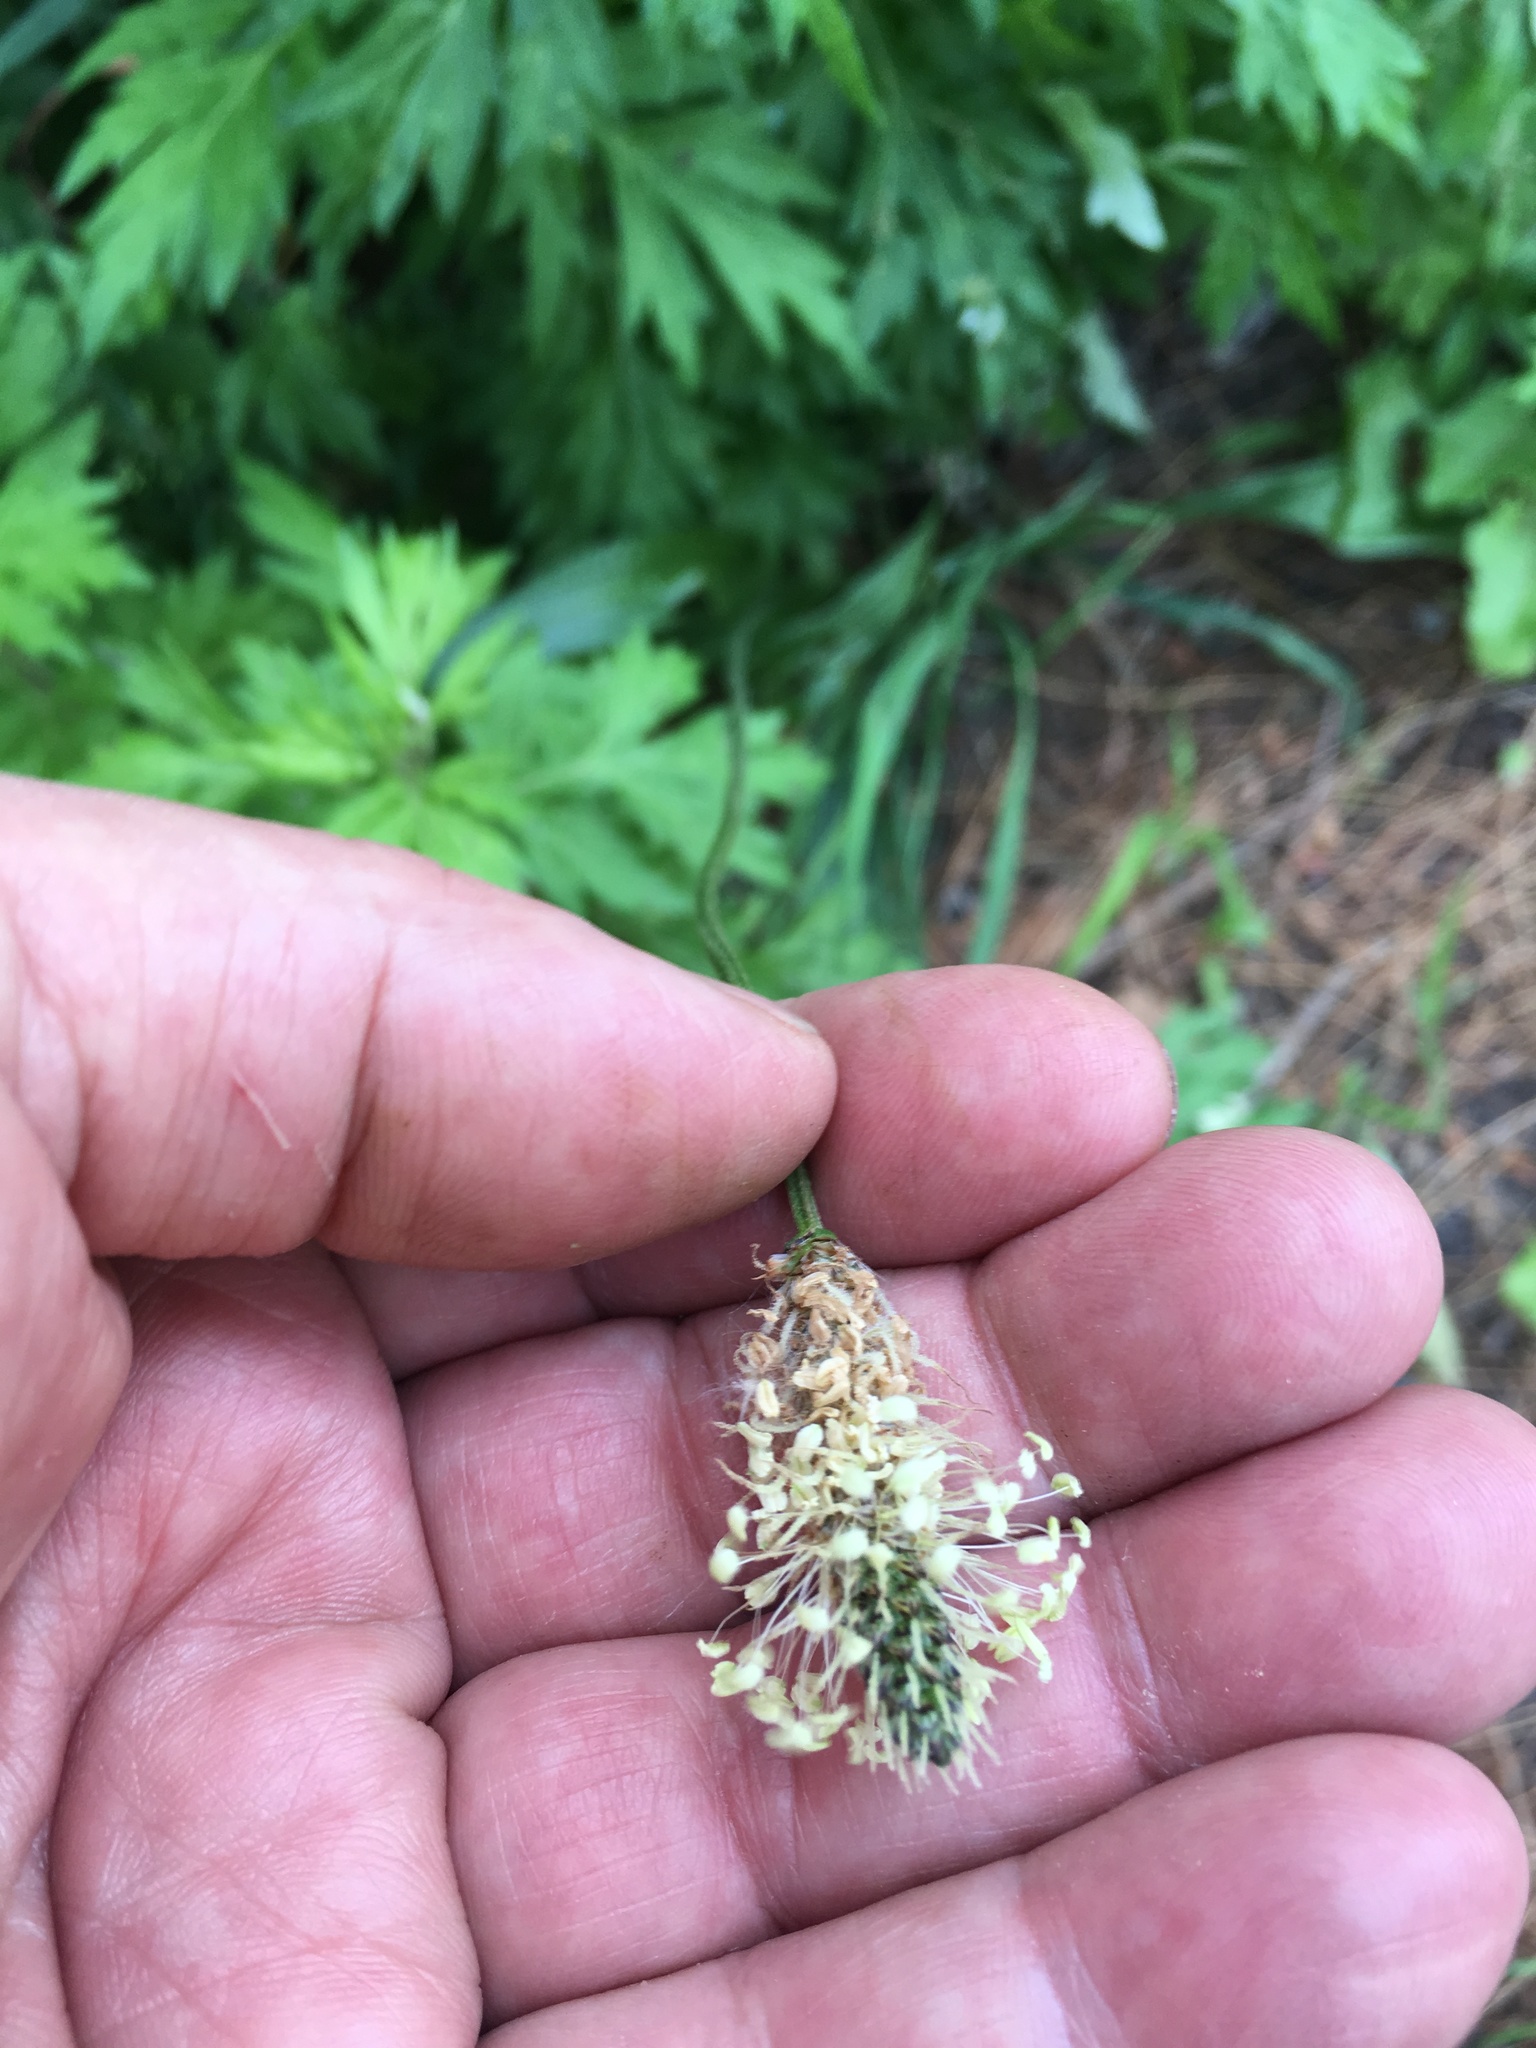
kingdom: Plantae
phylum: Tracheophyta
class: Magnoliopsida
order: Lamiales
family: Plantaginaceae
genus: Plantago
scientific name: Plantago lanceolata
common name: Ribwort plantain
